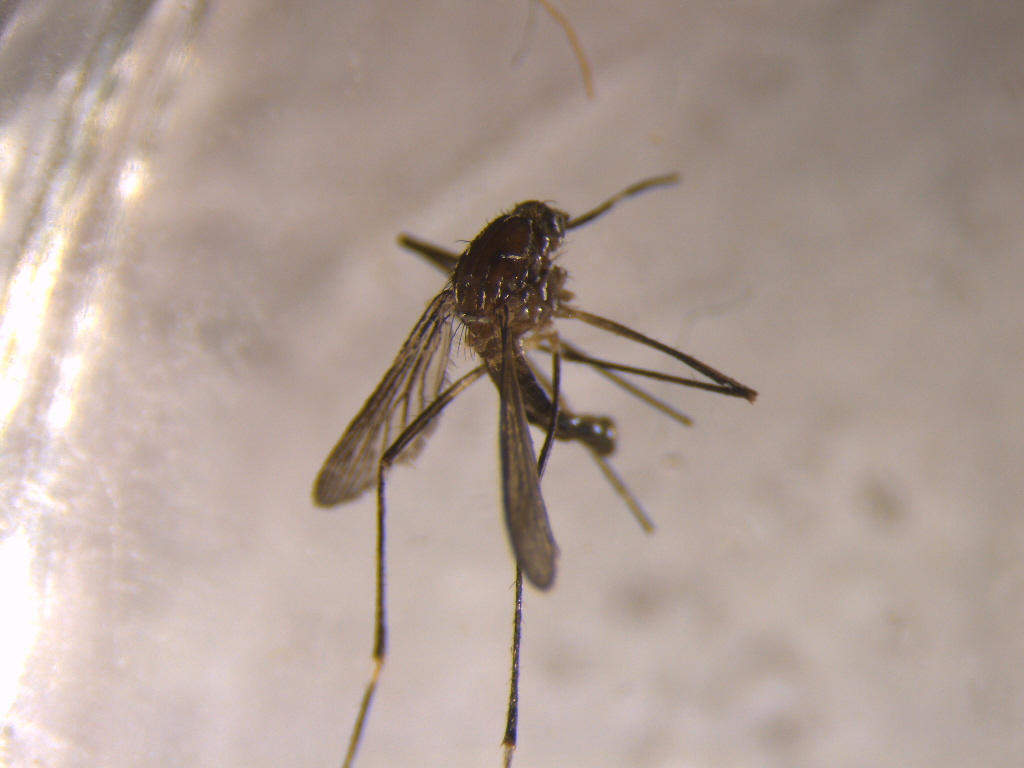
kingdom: Animalia
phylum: Arthropoda
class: Insecta
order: Diptera
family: Culicidae
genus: Aedes
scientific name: Aedes notoscriptus
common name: Australian backyard mosquito
